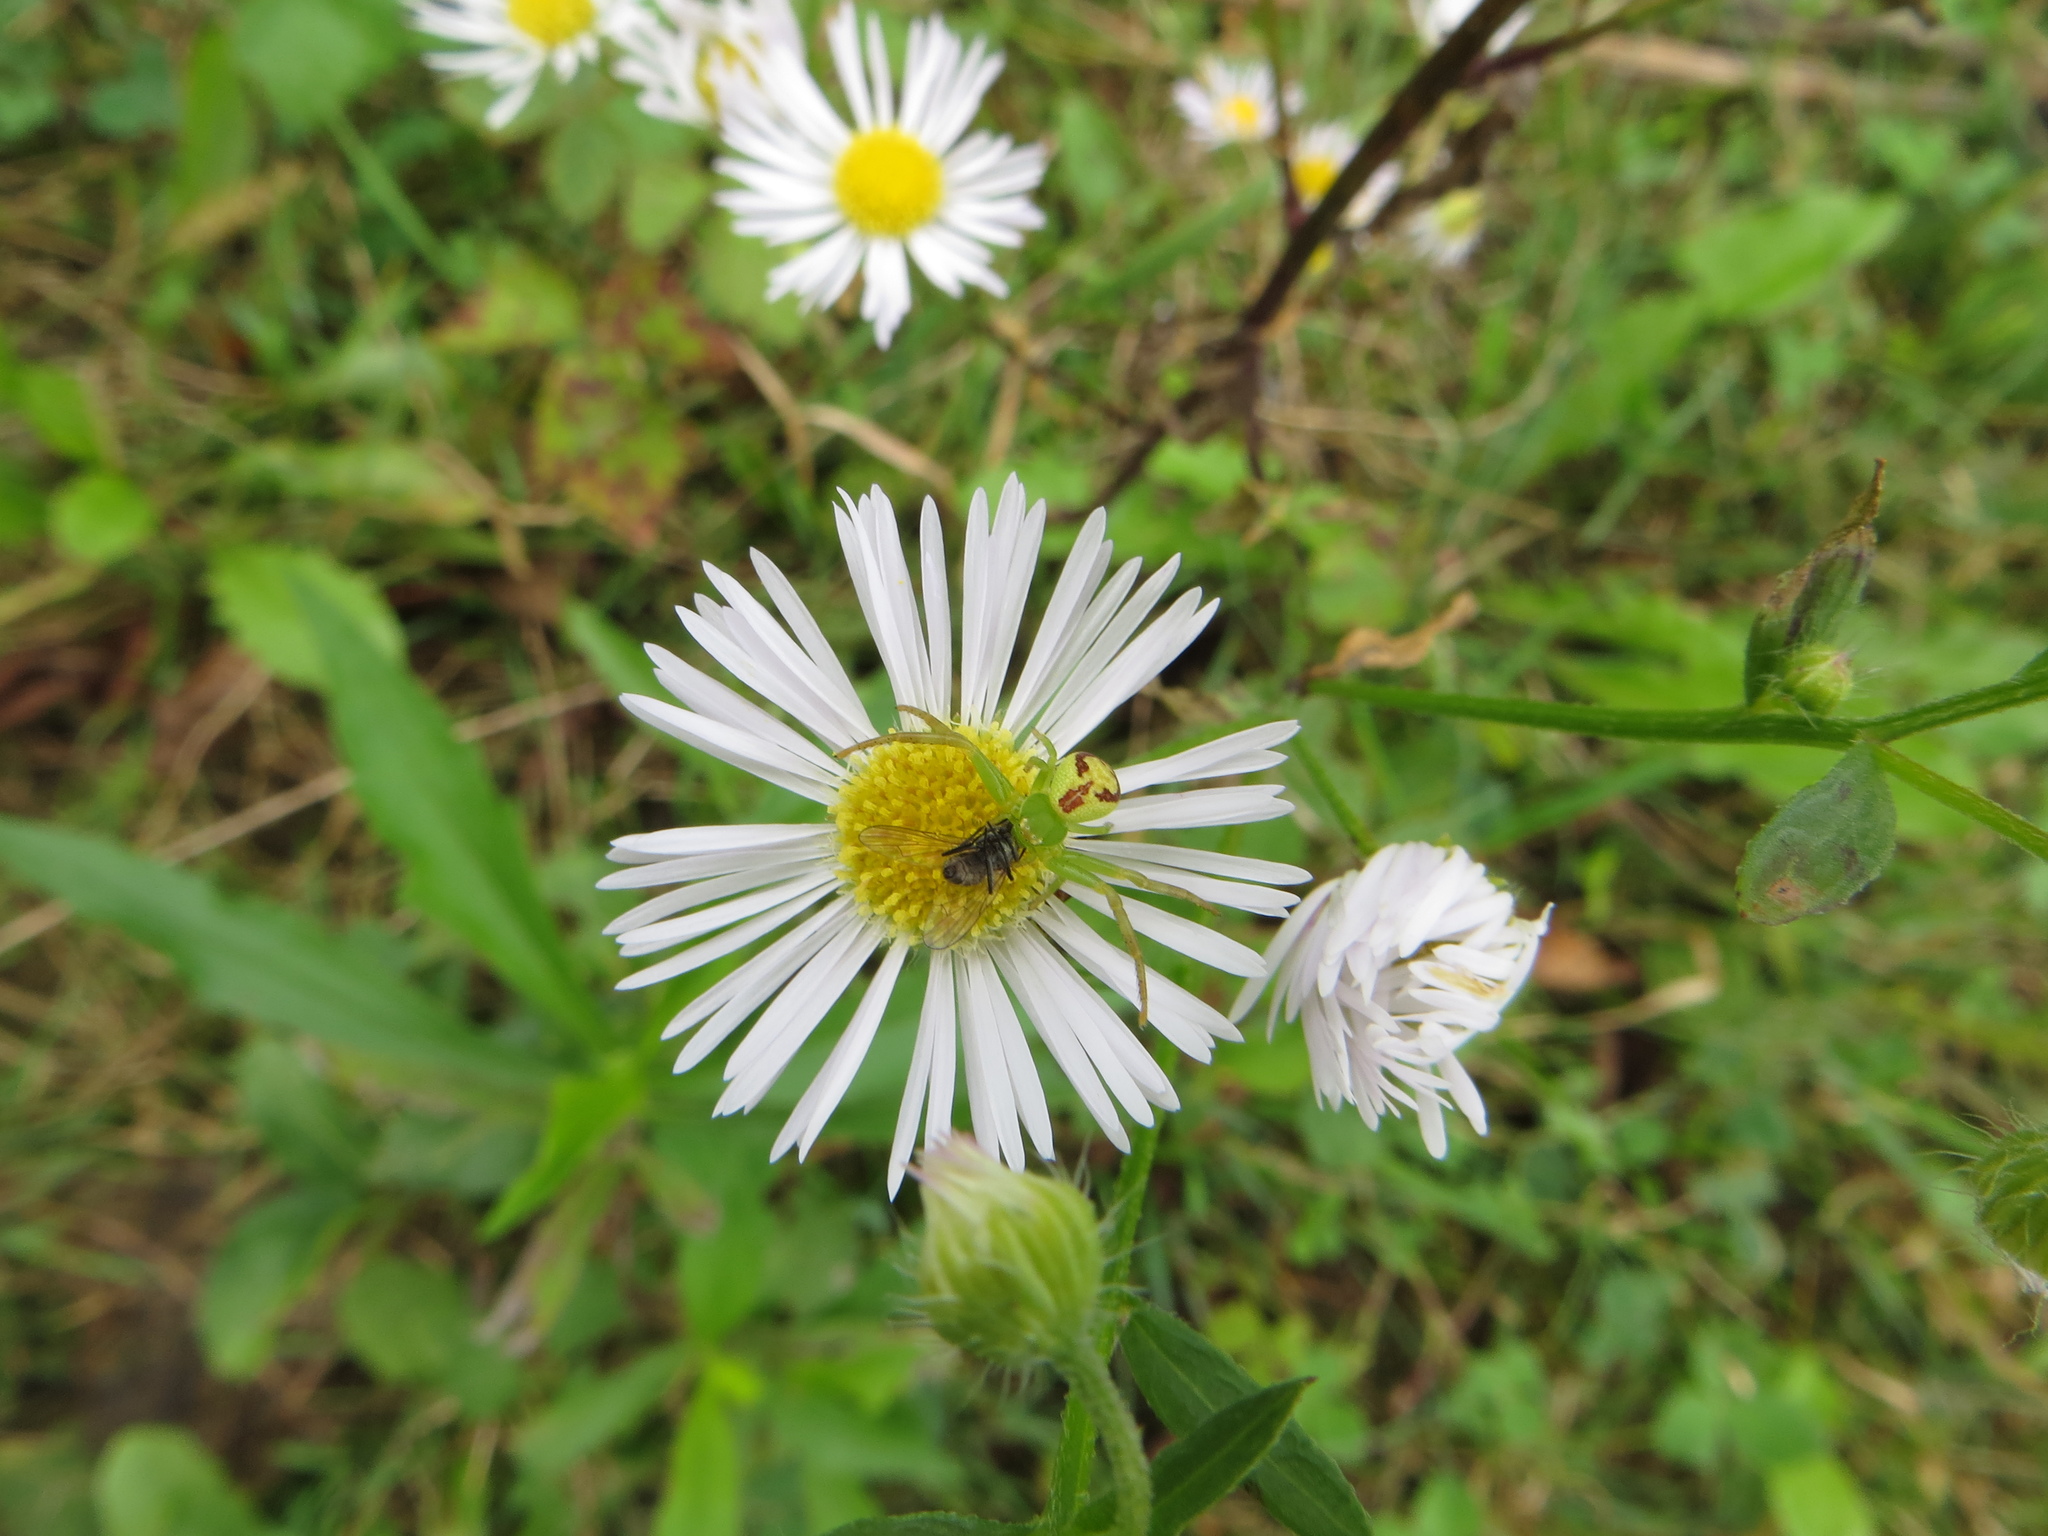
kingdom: Animalia
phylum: Arthropoda
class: Arachnida
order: Araneae
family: Thomisidae
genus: Ebrechtella
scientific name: Ebrechtella tricuspidata
